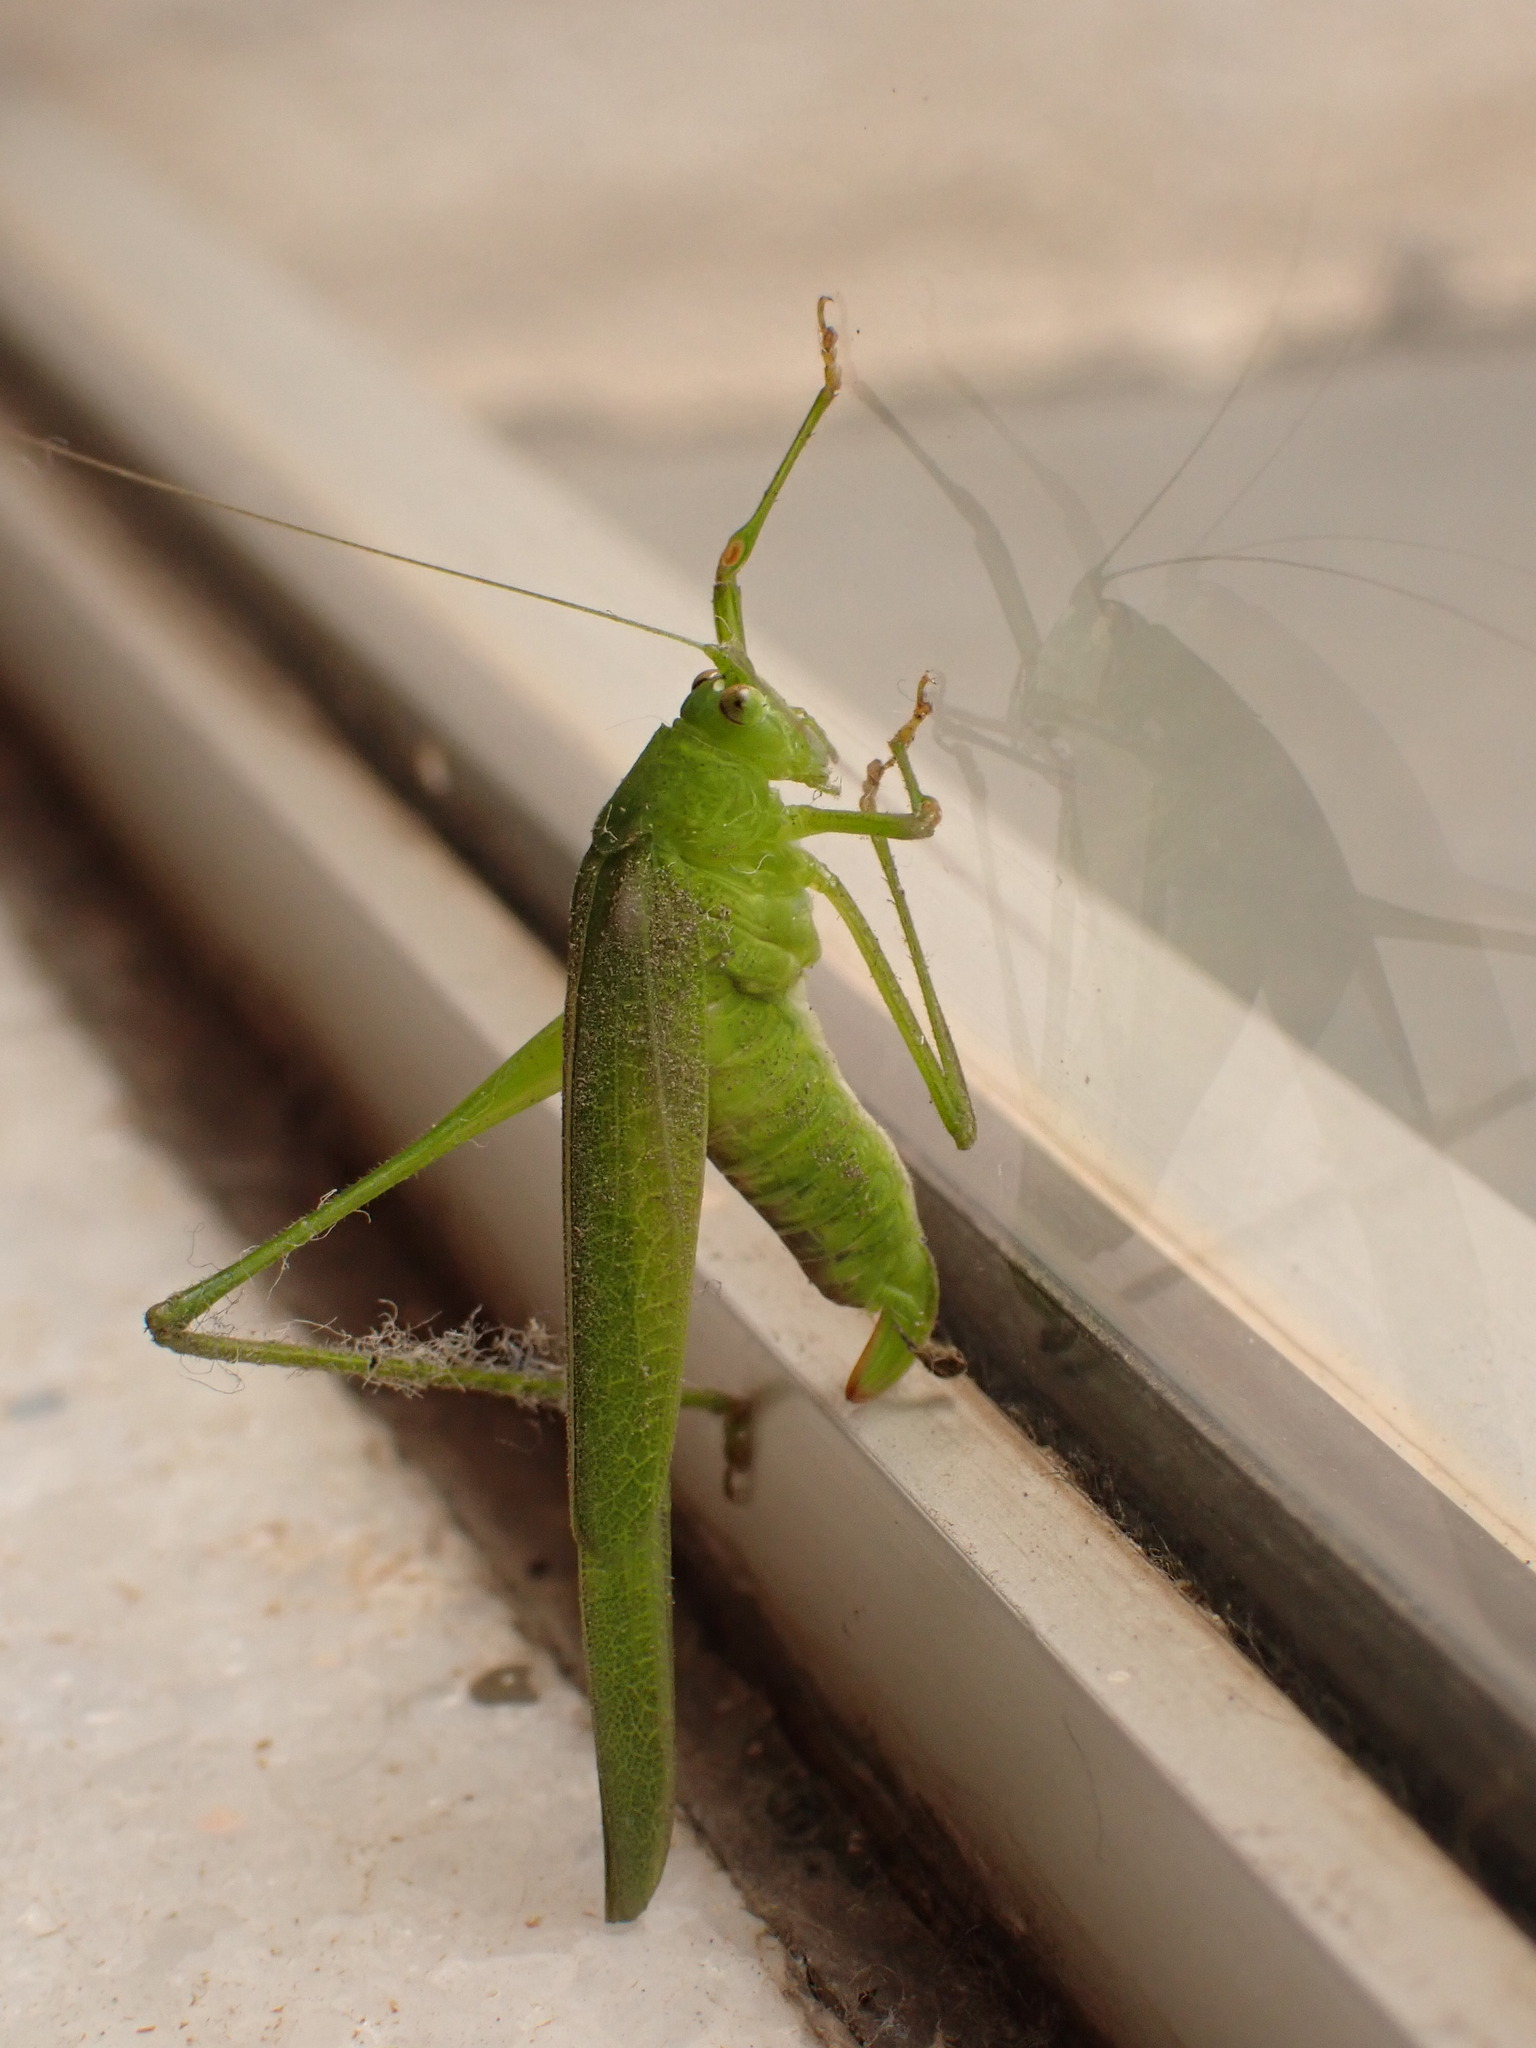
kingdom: Animalia
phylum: Arthropoda
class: Insecta
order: Orthoptera
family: Tettigoniidae
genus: Phaneroptera
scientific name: Phaneroptera quinquesignata
